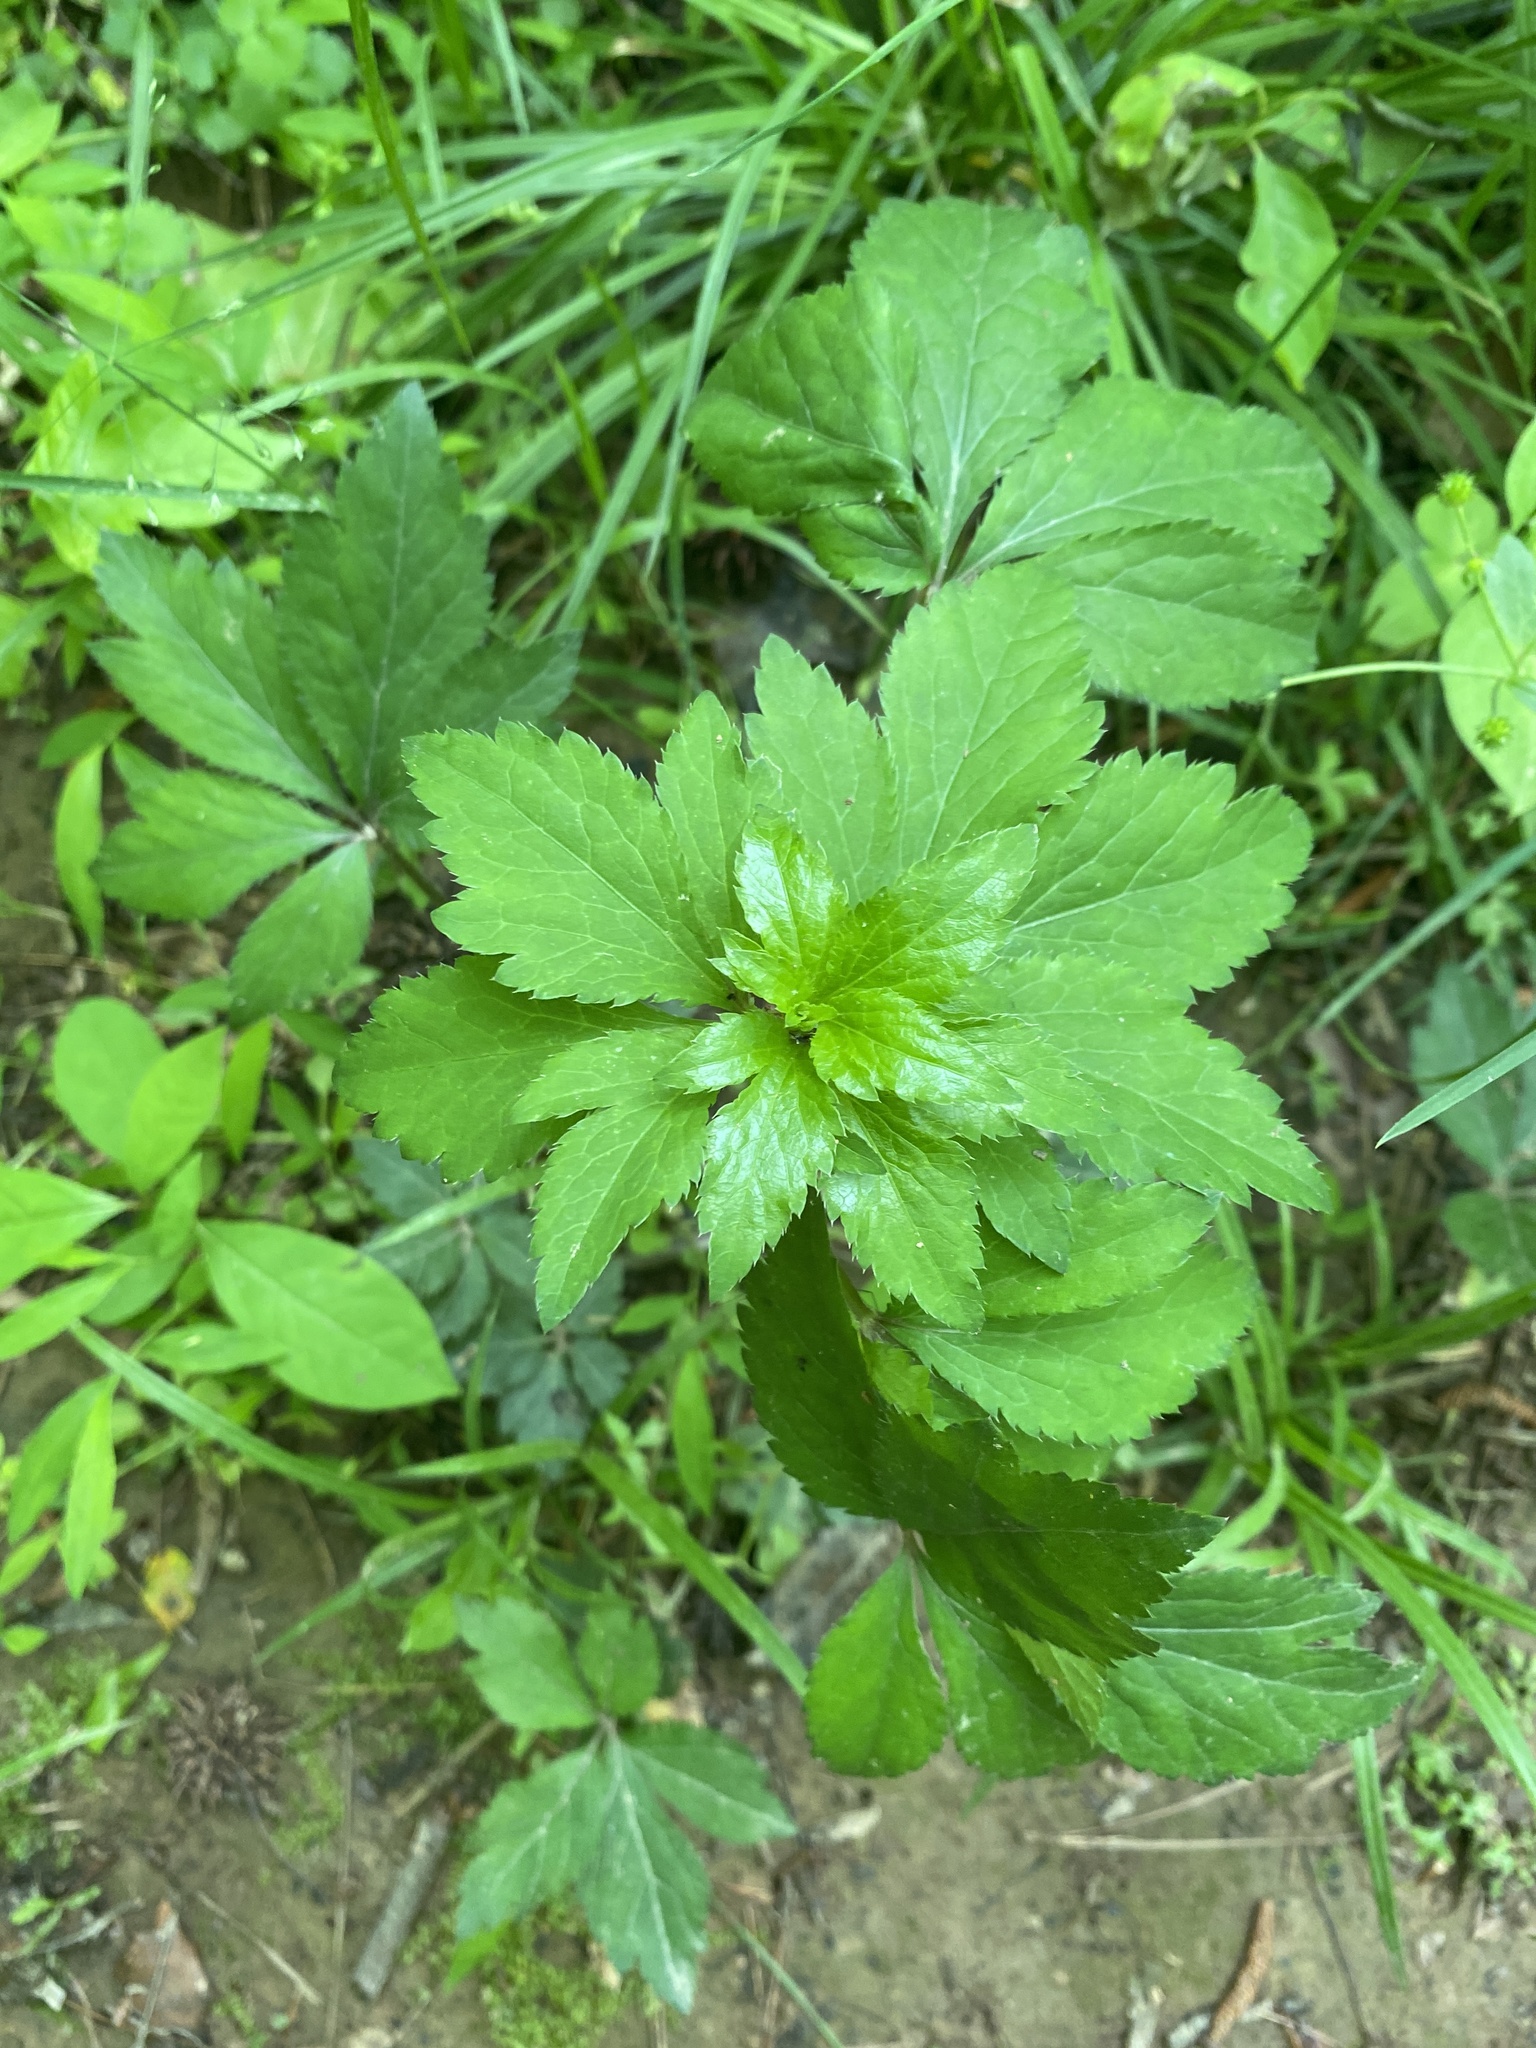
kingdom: Plantae
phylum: Tracheophyta
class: Magnoliopsida
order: Apiales
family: Apiaceae
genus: Sanicula
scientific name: Sanicula marilandica
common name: Black snakeroot
